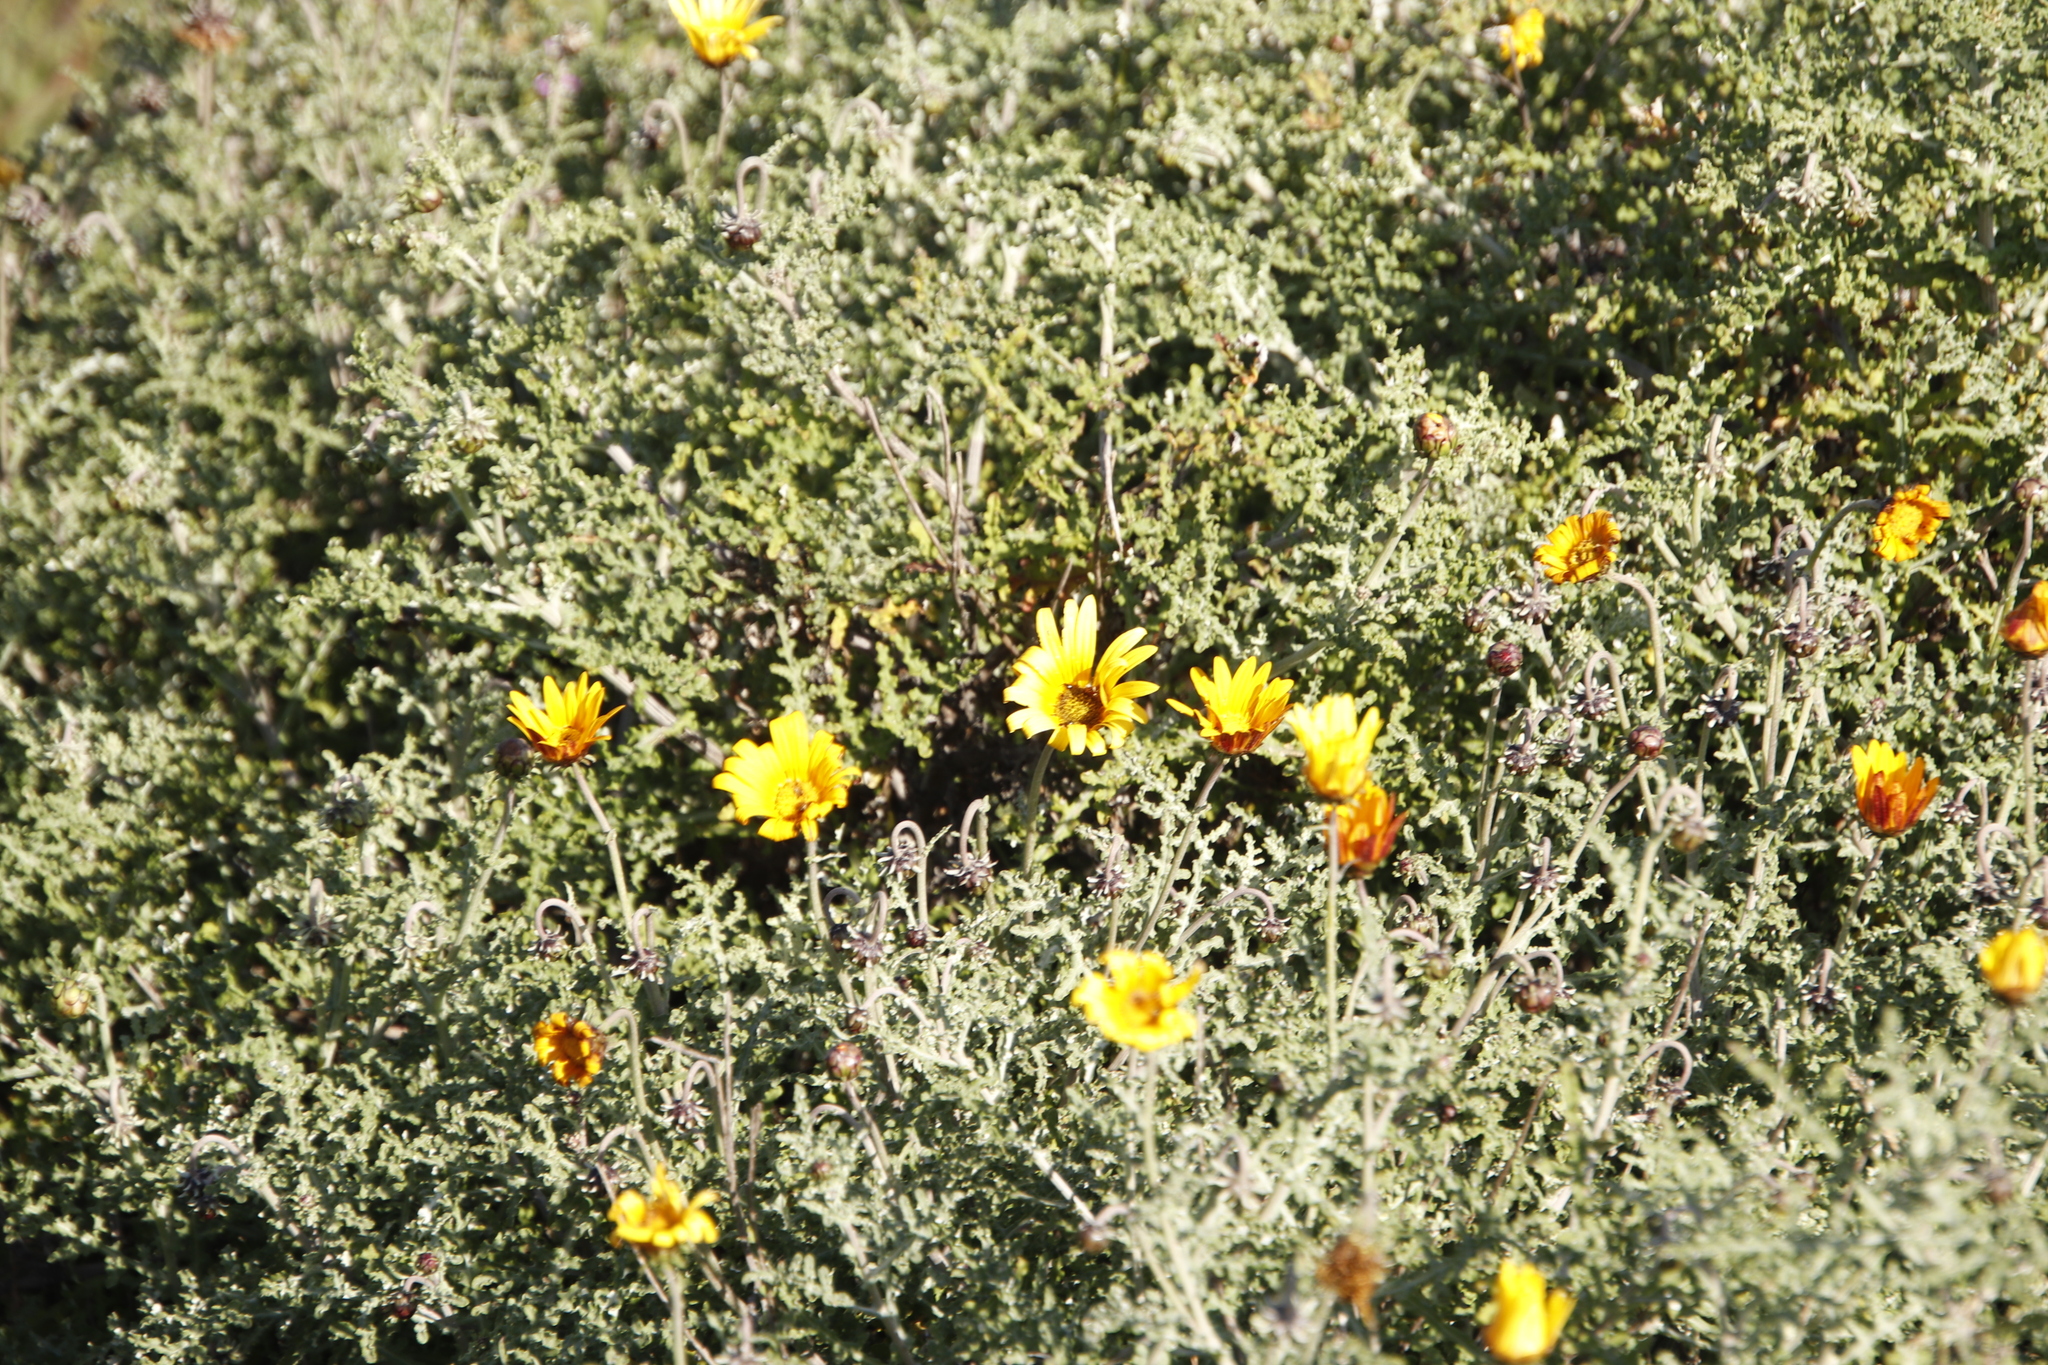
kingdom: Plantae
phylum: Tracheophyta
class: Magnoliopsida
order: Asterales
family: Asteraceae
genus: Arctotis
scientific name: Arctotis laciniata
